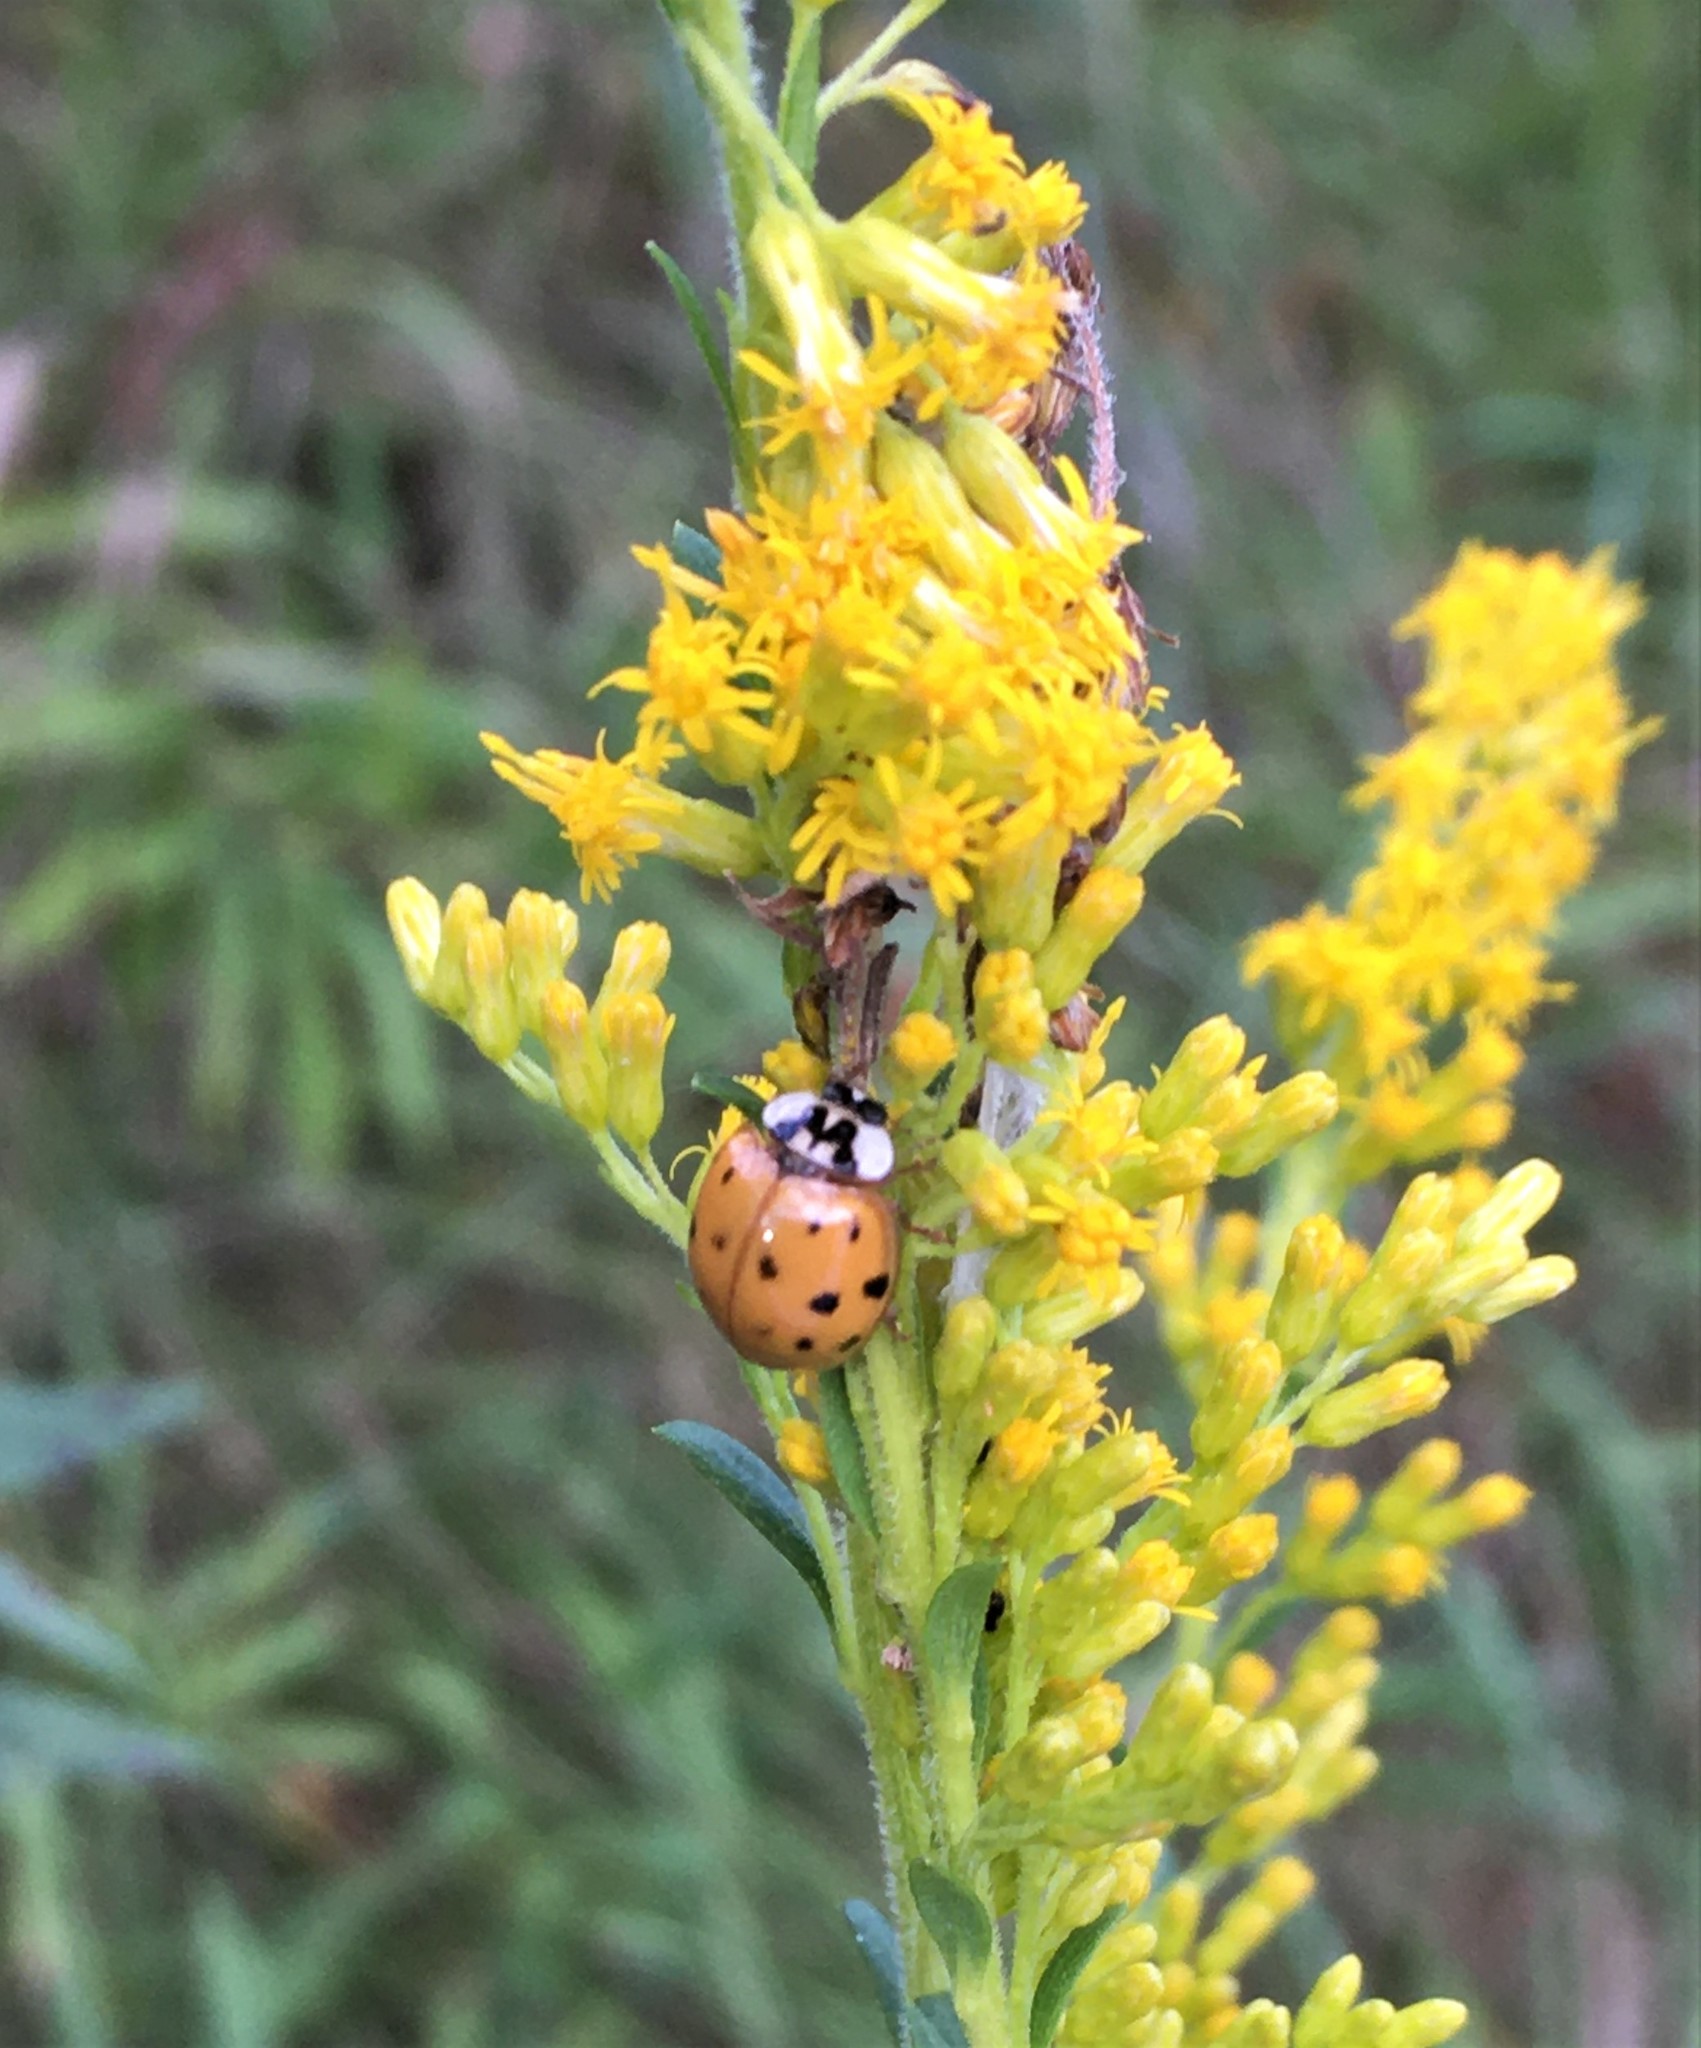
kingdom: Animalia
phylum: Arthropoda
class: Insecta
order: Coleoptera
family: Coccinellidae
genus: Harmonia
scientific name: Harmonia axyridis
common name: Harlequin ladybird
